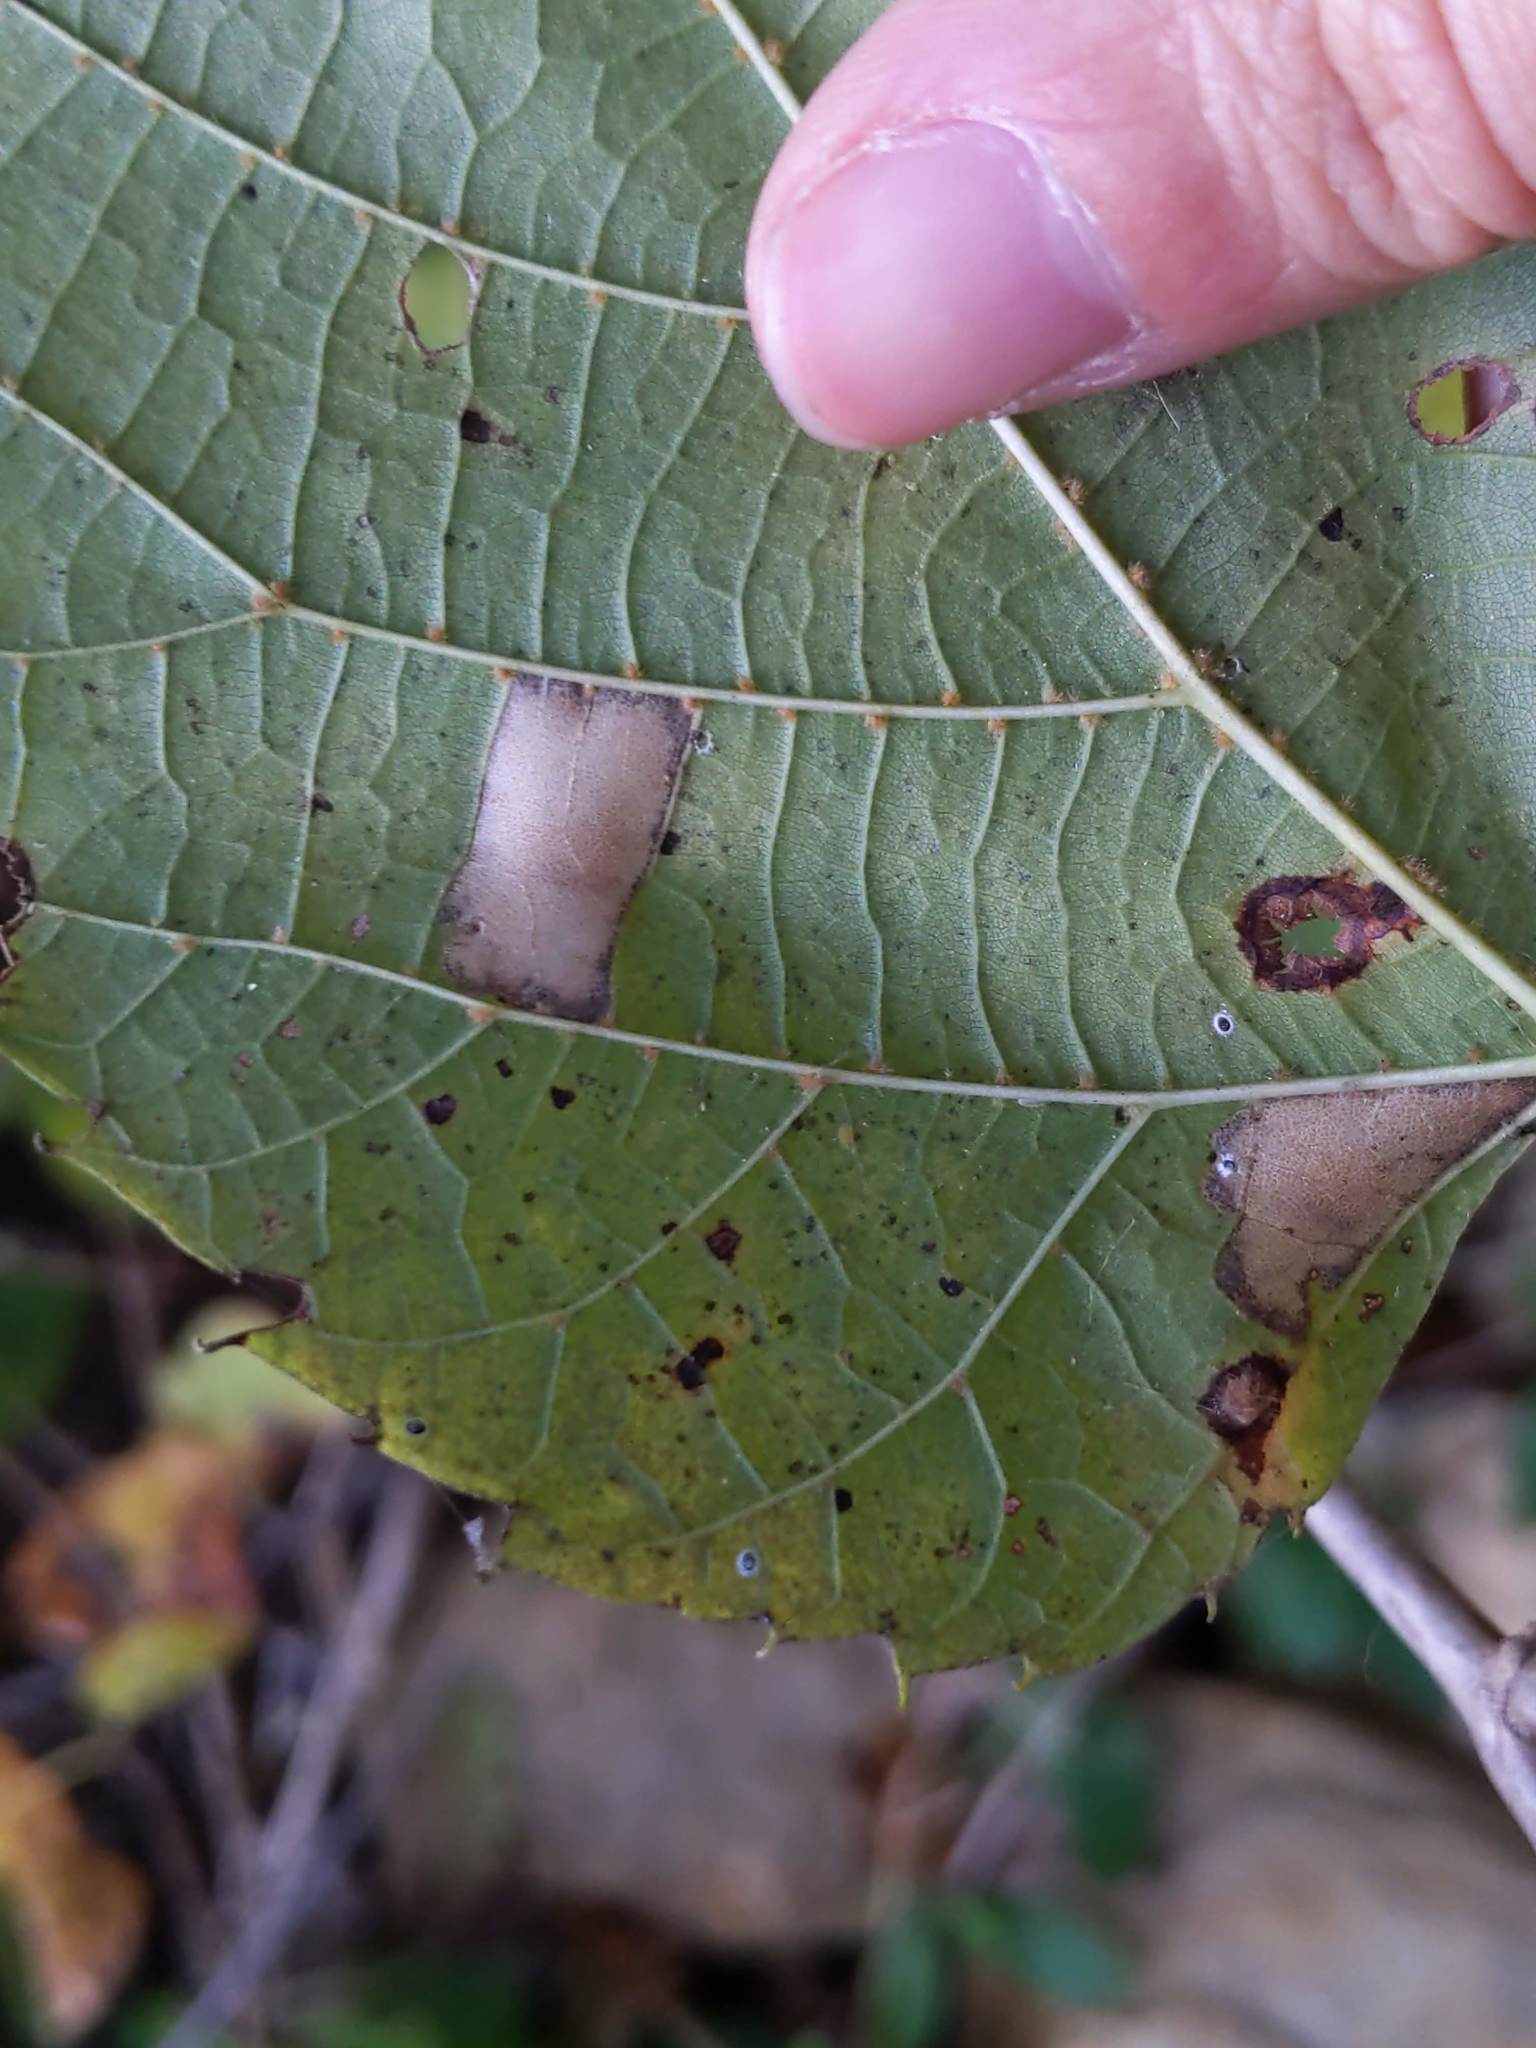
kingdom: Animalia
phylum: Arthropoda
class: Insecta
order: Lepidoptera
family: Gracillariidae
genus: Phyllonorycter
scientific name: Phyllonorycter lucetiella
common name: Basswood miner moth
